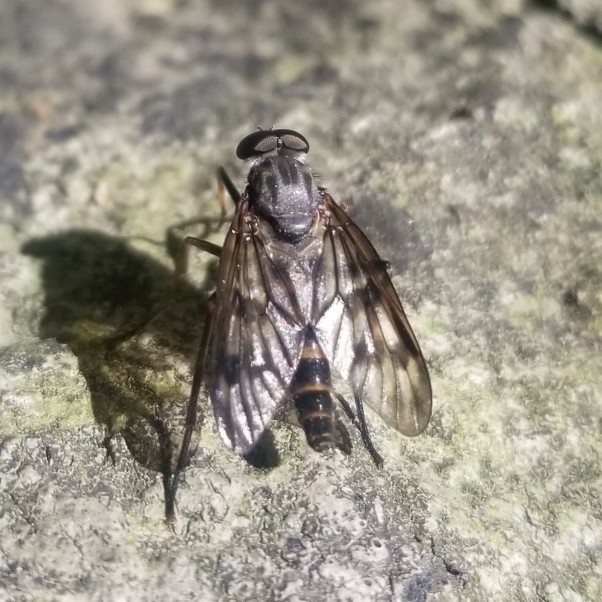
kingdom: Animalia
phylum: Arthropoda
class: Insecta
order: Diptera
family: Rhagionidae
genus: Rhagio
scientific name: Rhagio mystaceus
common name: Common snipe fly
